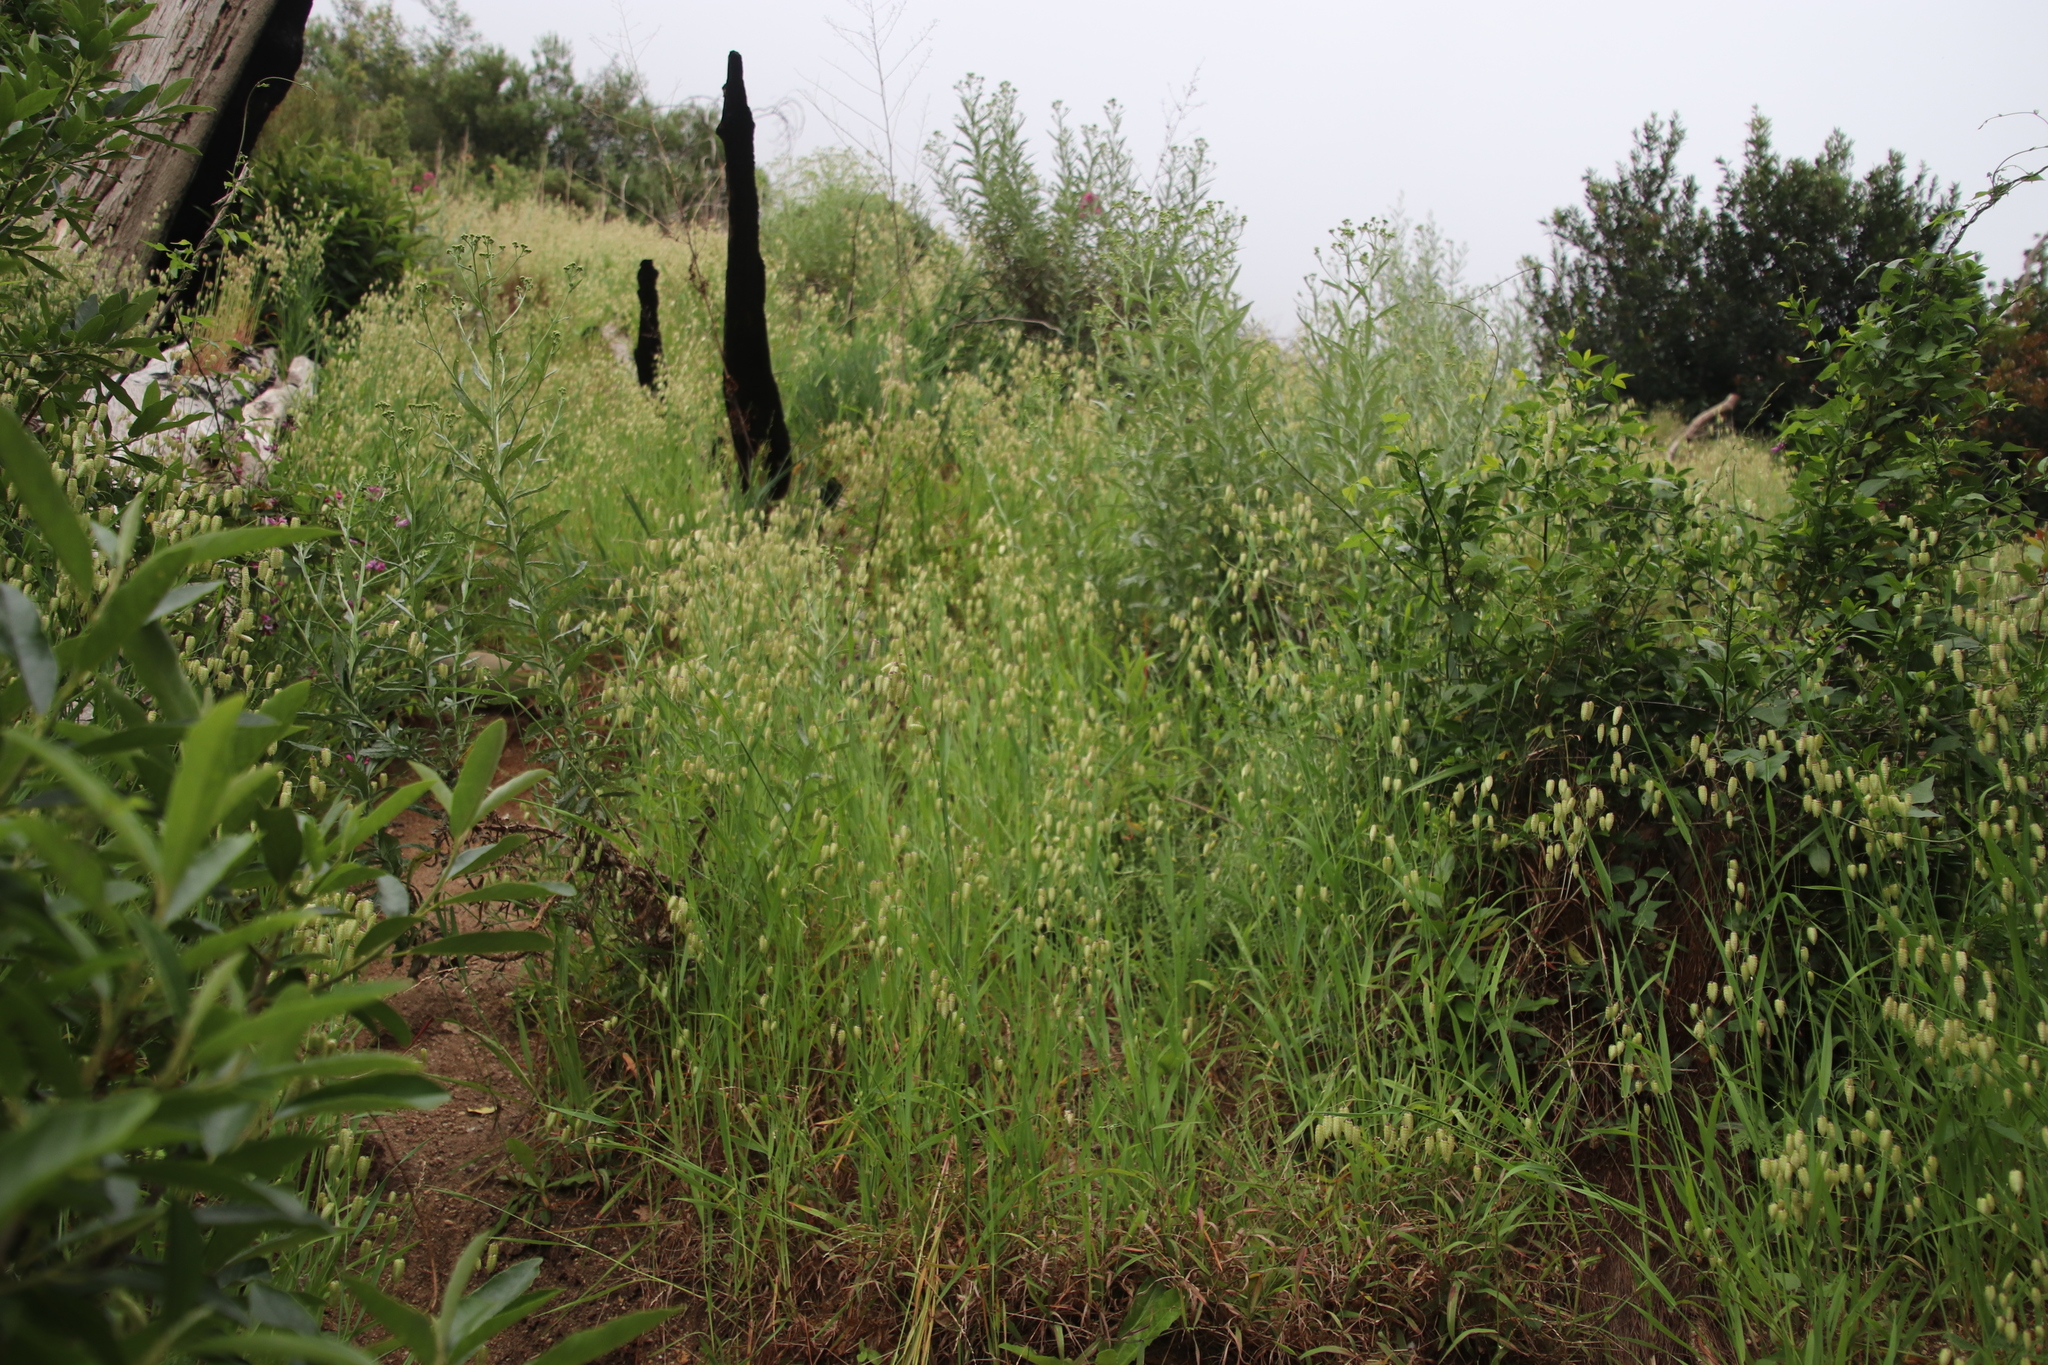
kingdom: Plantae
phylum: Tracheophyta
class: Liliopsida
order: Poales
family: Poaceae
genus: Briza
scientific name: Briza maxima
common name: Big quakinggrass
